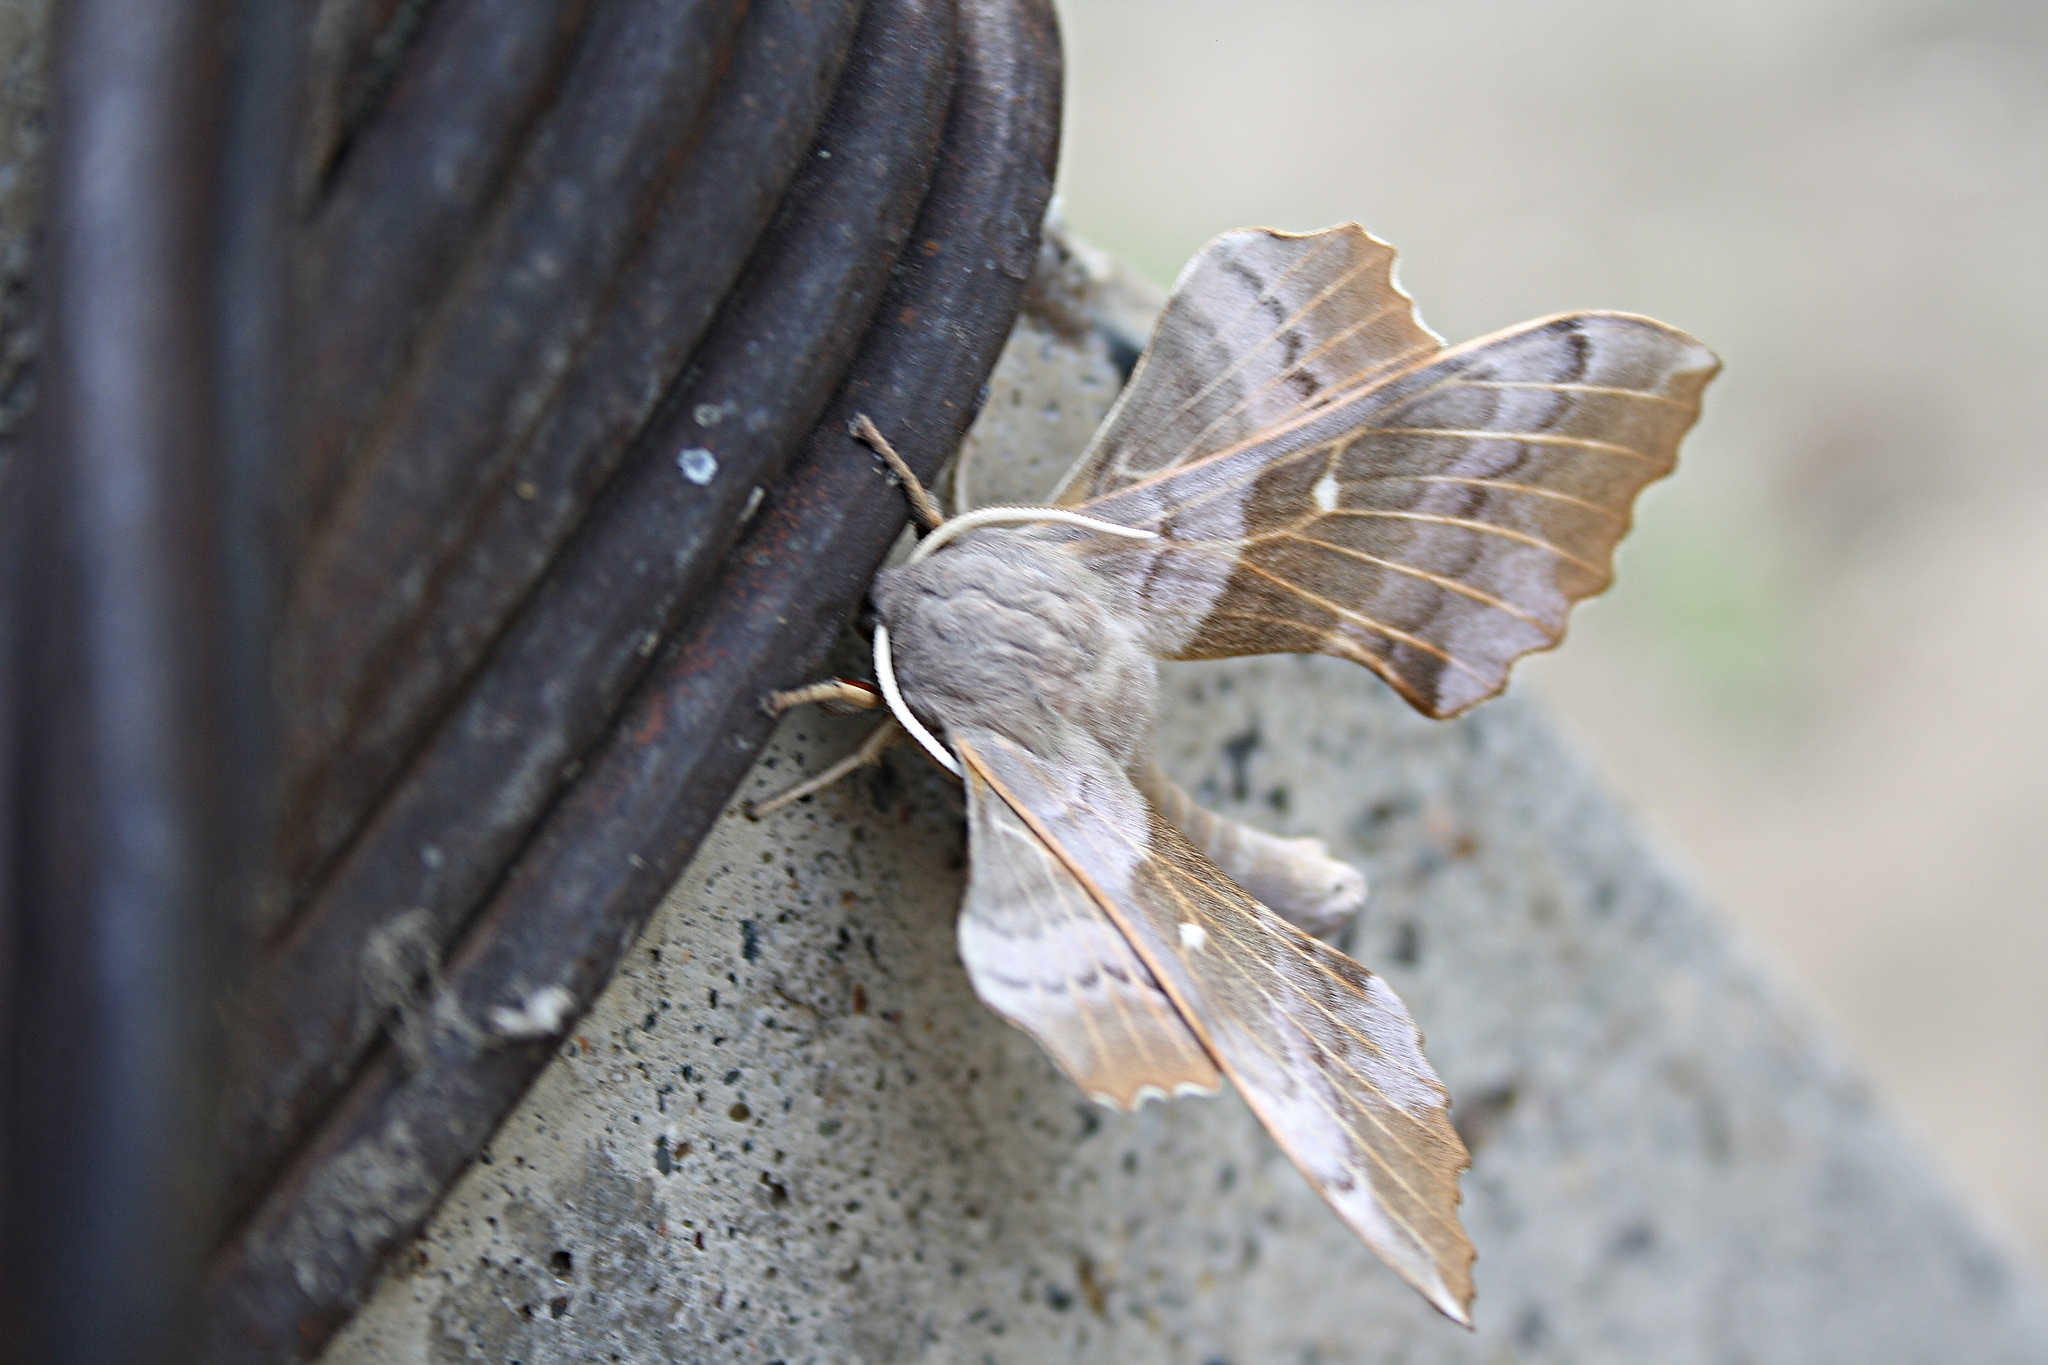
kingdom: Animalia
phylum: Arthropoda
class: Insecta
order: Lepidoptera
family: Sphingidae
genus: Laothoe
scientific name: Laothoe populi
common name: Poplar hawk-moth
